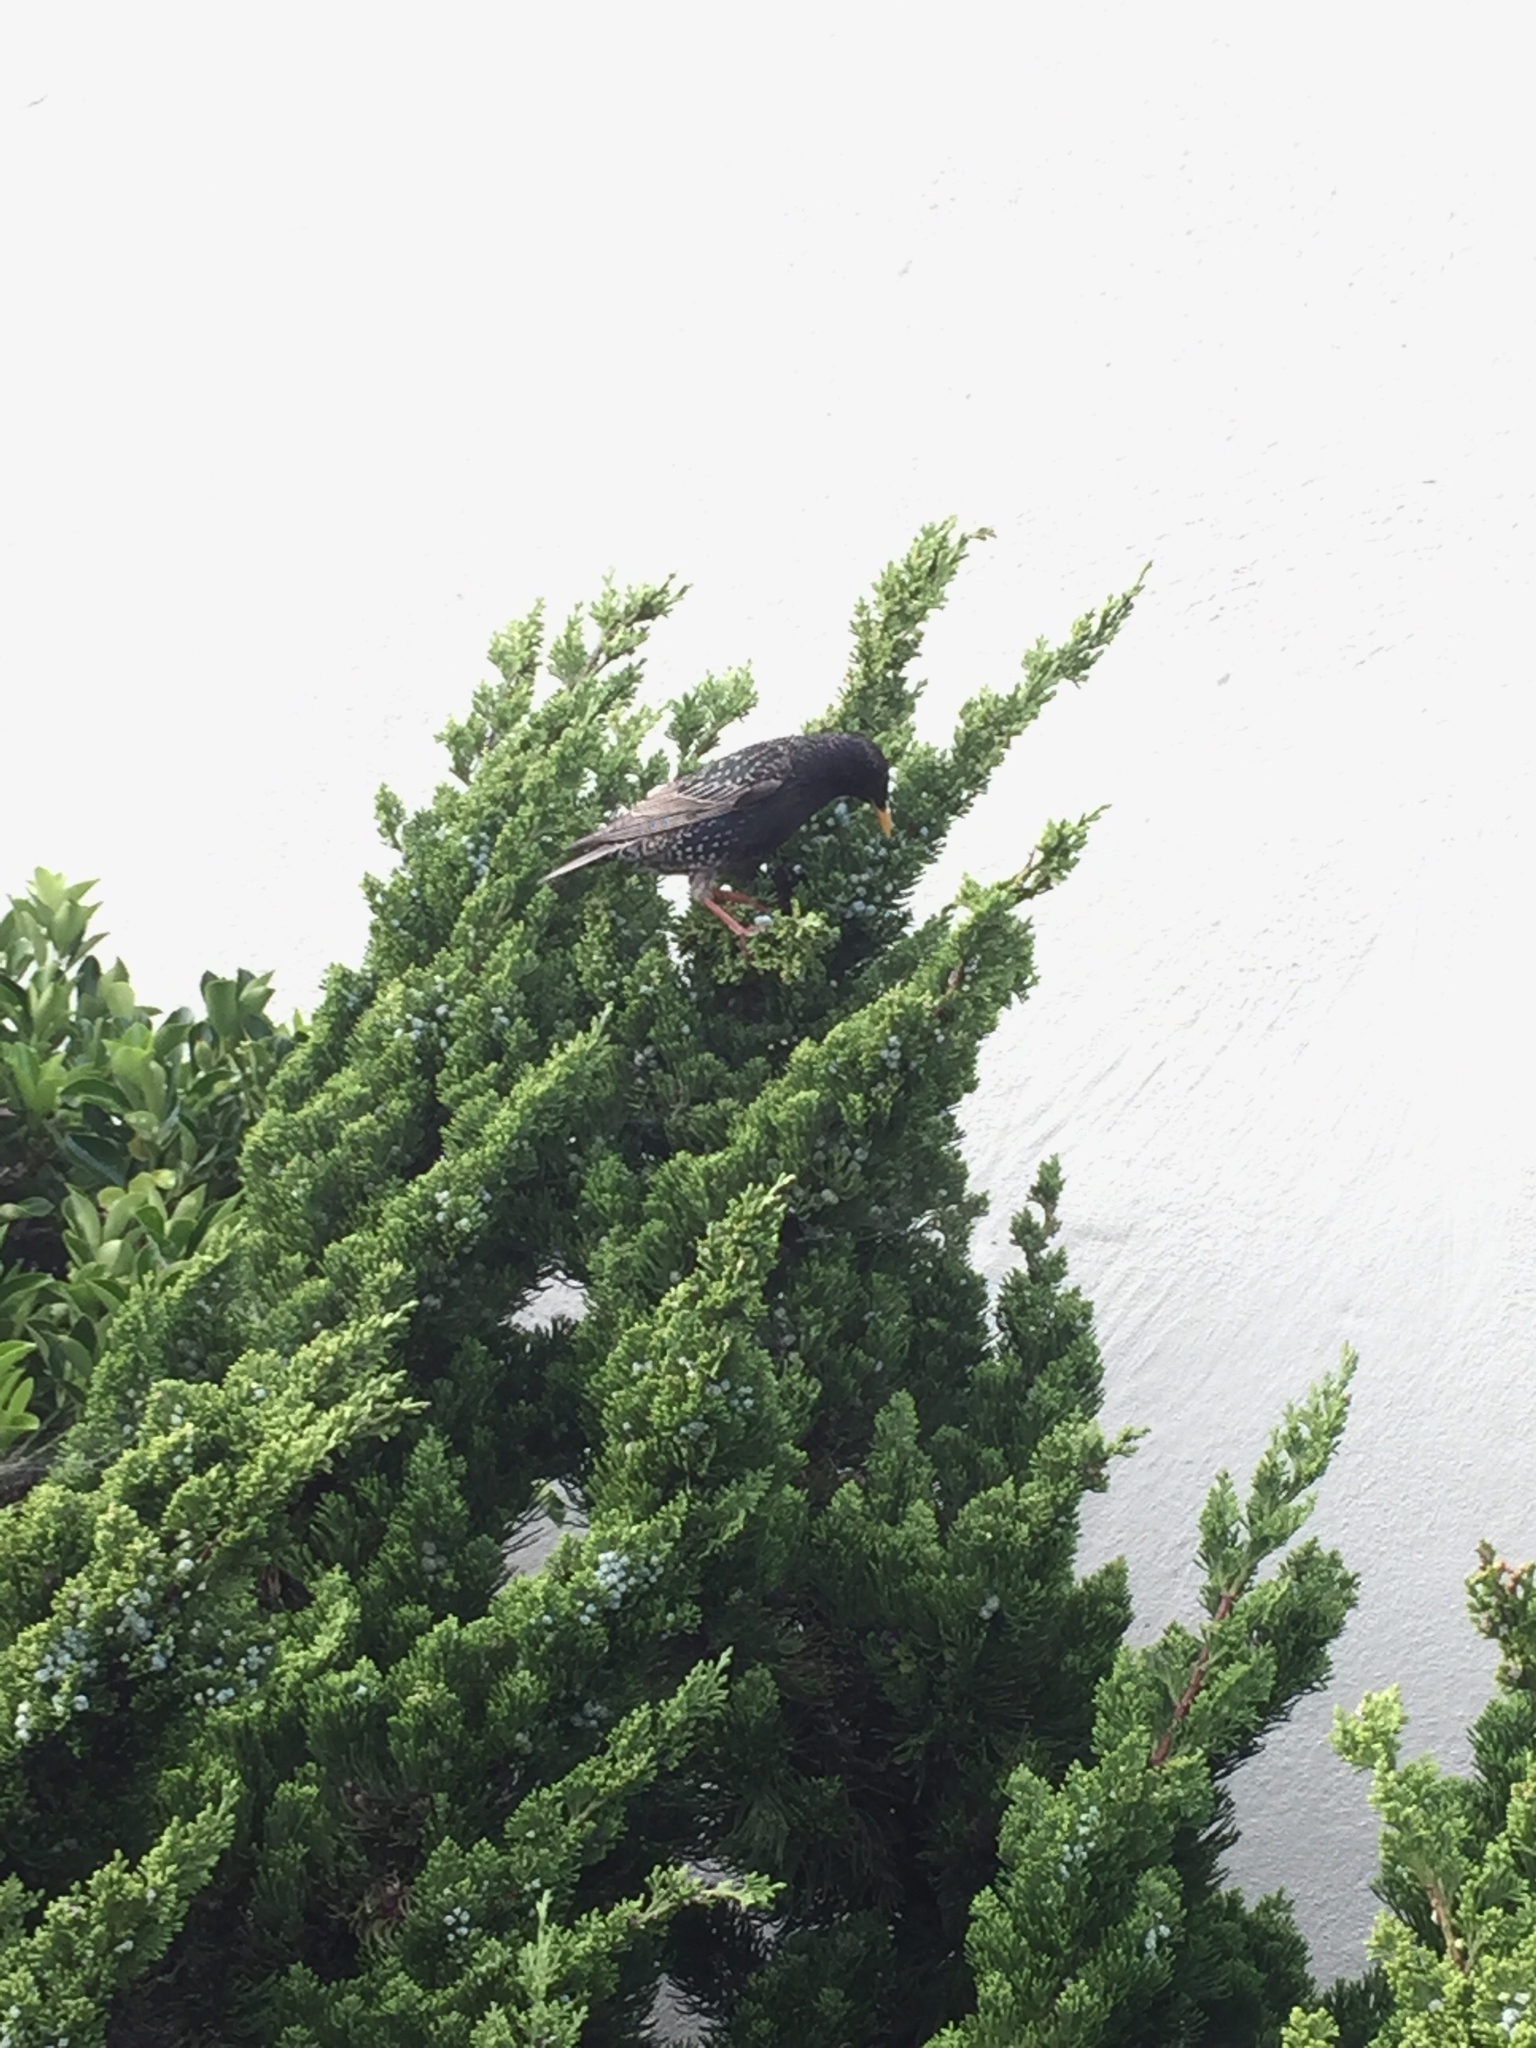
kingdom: Animalia
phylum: Chordata
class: Aves
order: Passeriformes
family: Sturnidae
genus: Sturnus
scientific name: Sturnus vulgaris
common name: Common starling
